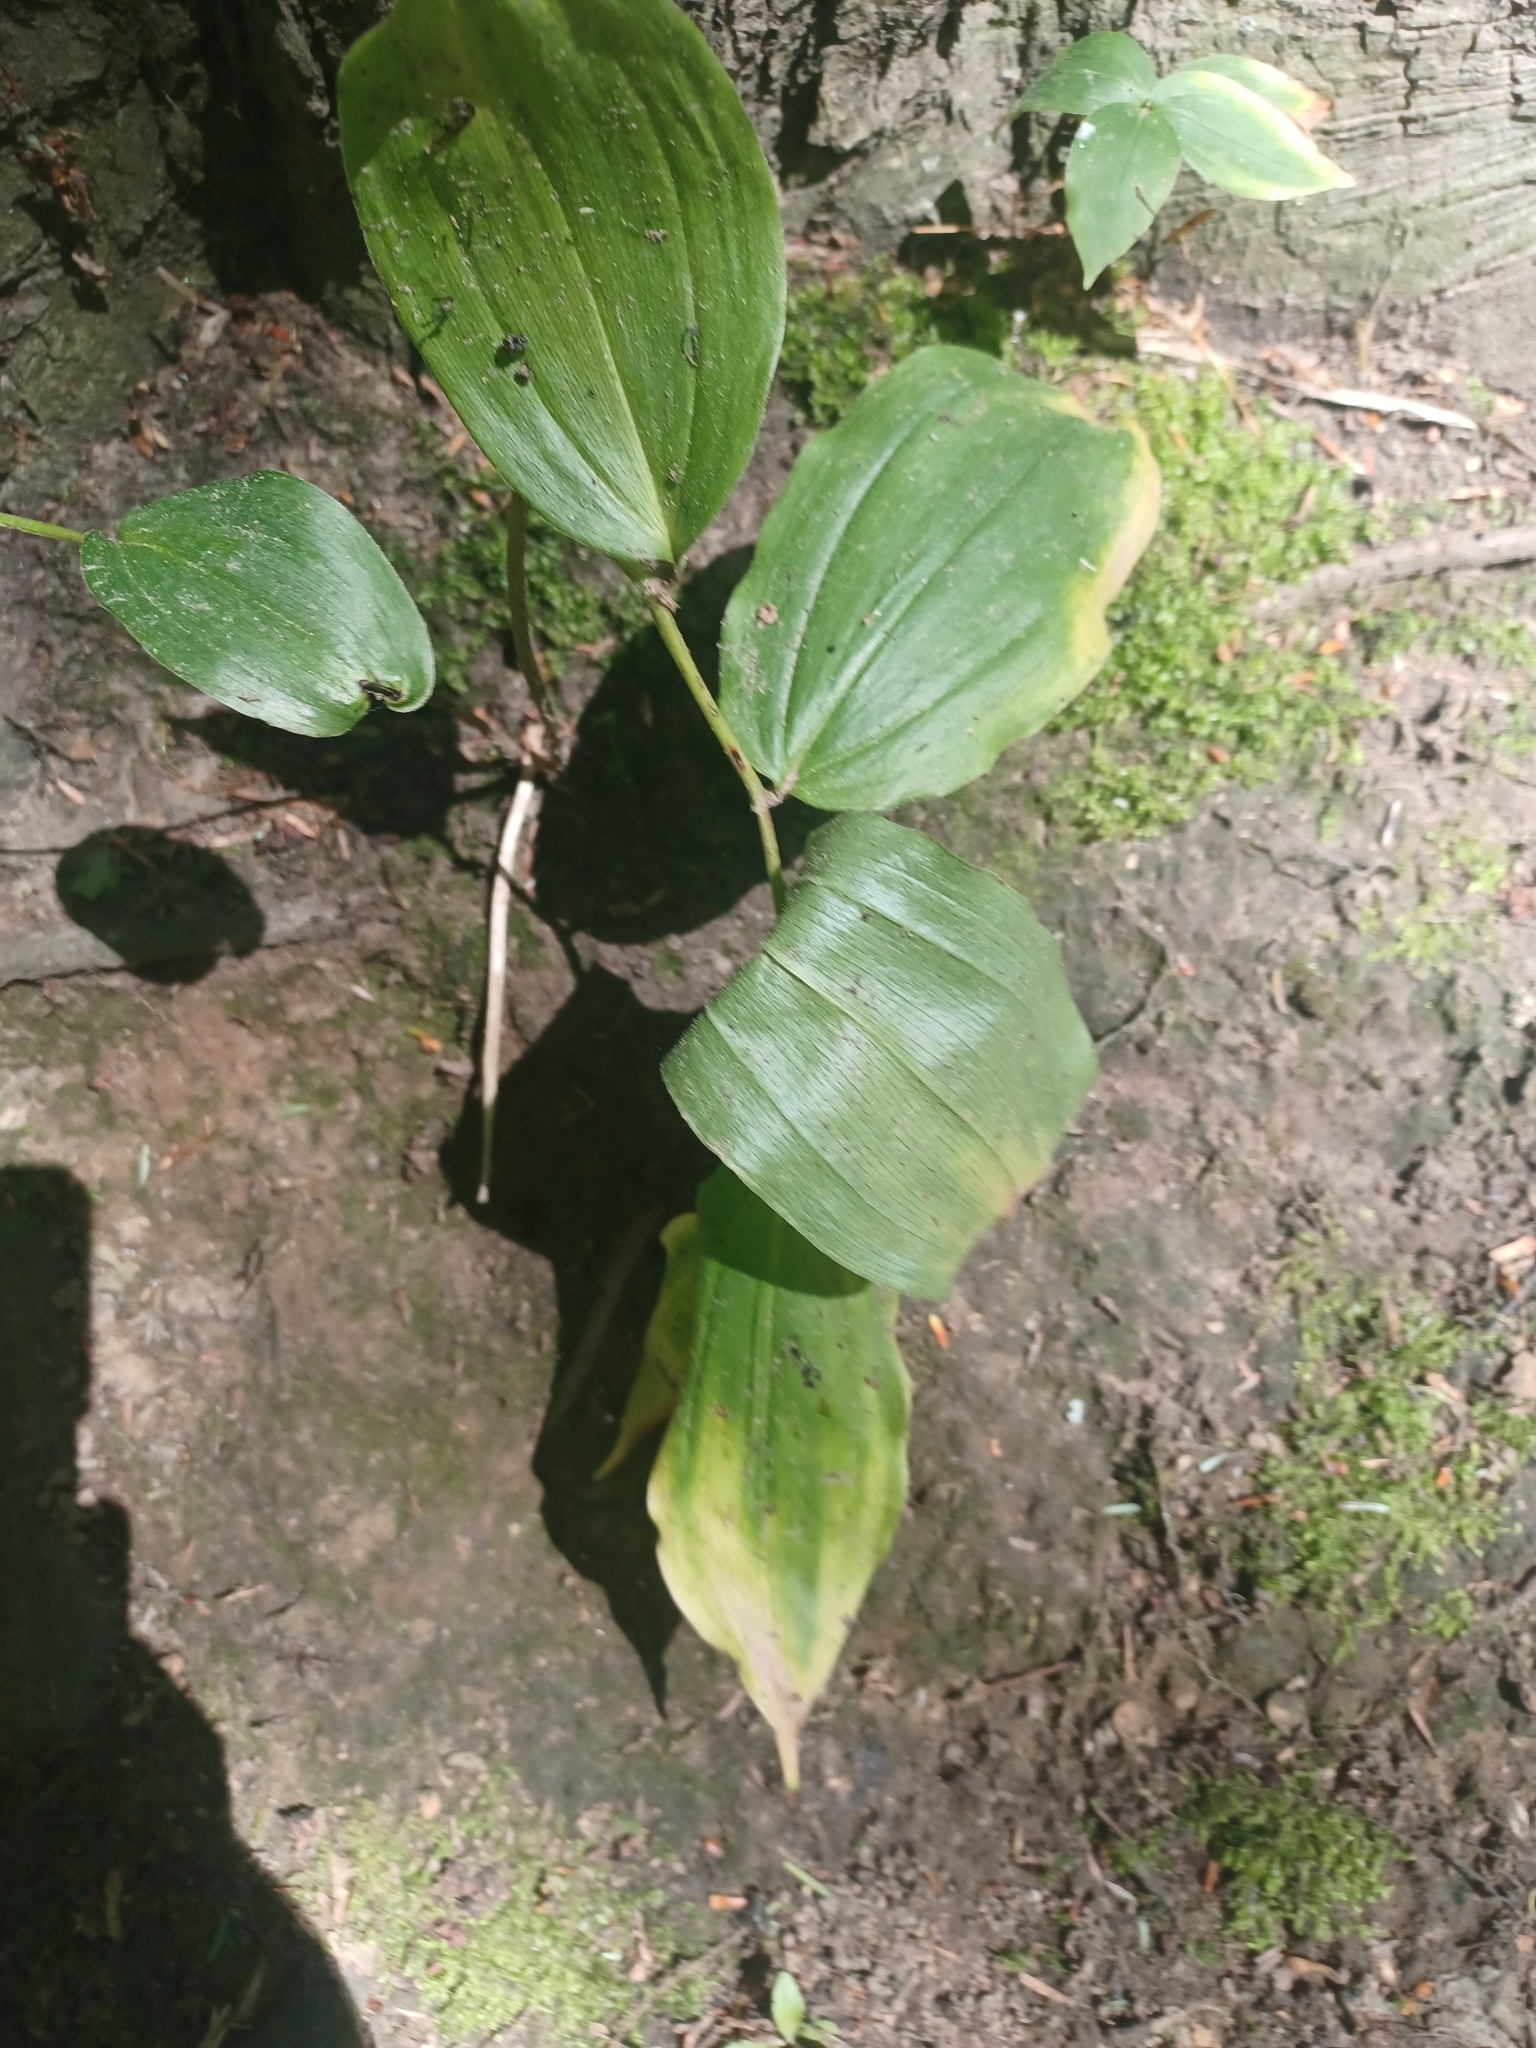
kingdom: Plantae
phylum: Tracheophyta
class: Liliopsida
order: Asparagales
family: Asparagaceae
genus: Maianthemum
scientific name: Maianthemum racemosum
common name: False spikenard
